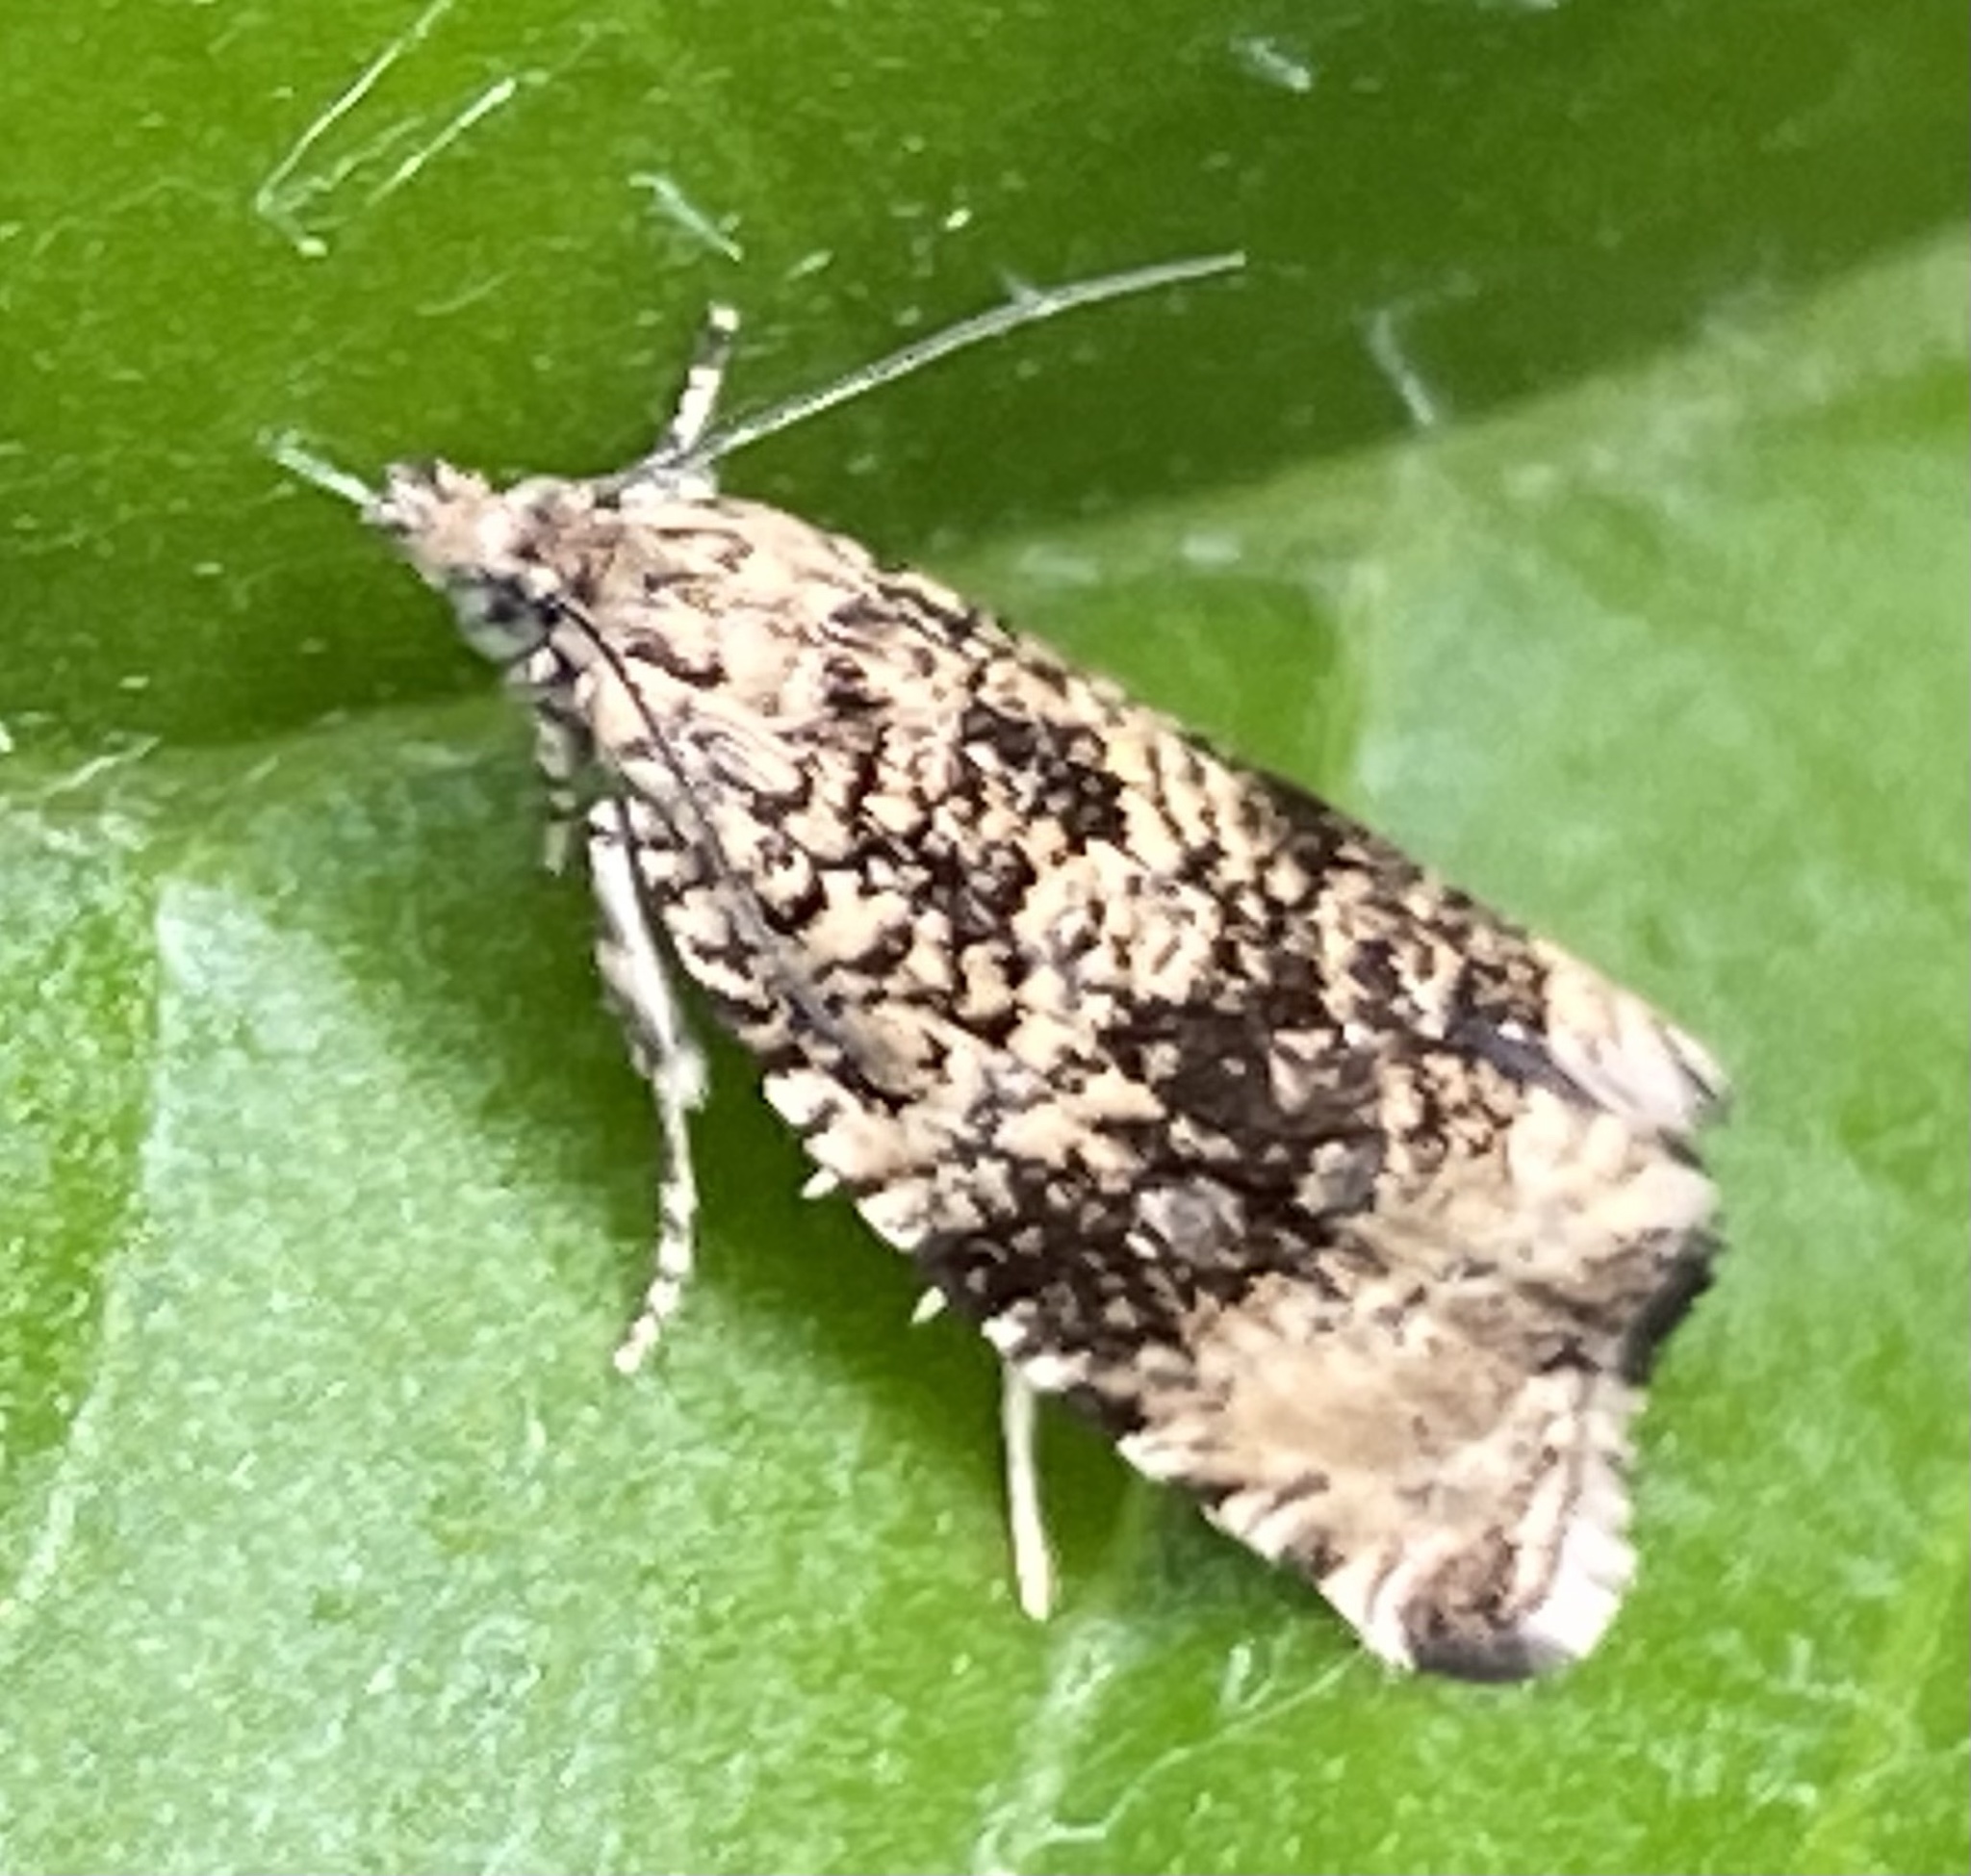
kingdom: Animalia
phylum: Arthropoda
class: Insecta
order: Lepidoptera
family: Tortricidae
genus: Syricoris
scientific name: Syricoris lacunana
